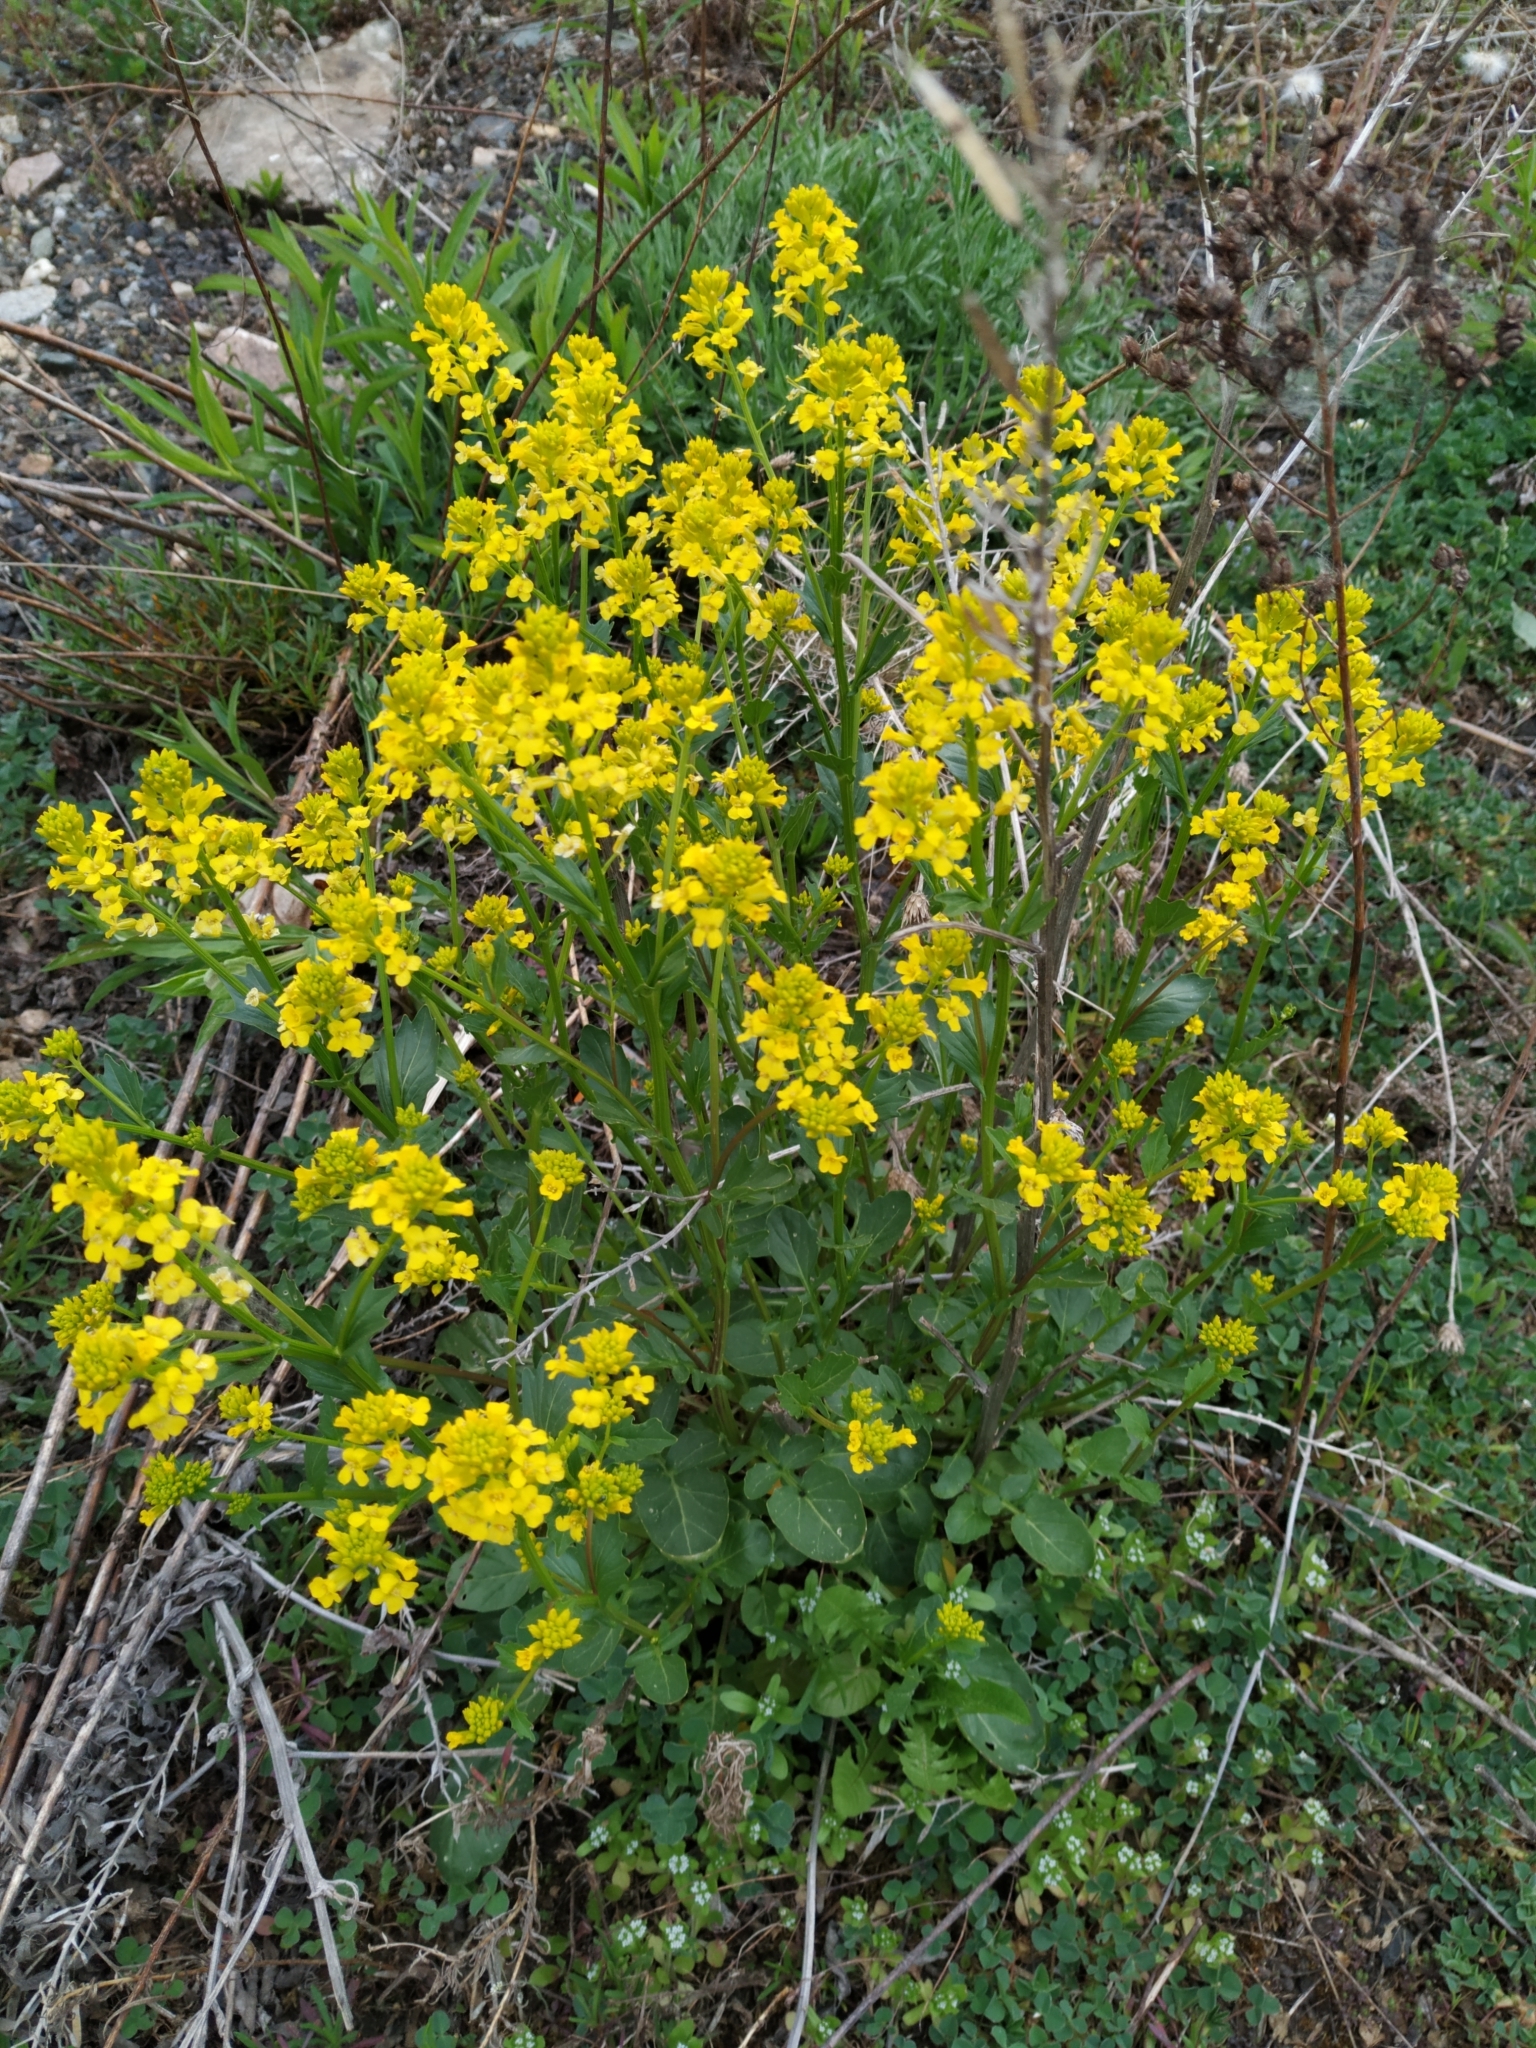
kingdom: Plantae
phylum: Tracheophyta
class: Magnoliopsida
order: Brassicales
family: Brassicaceae
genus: Barbarea
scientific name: Barbarea vulgaris
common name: Cressy-greens
